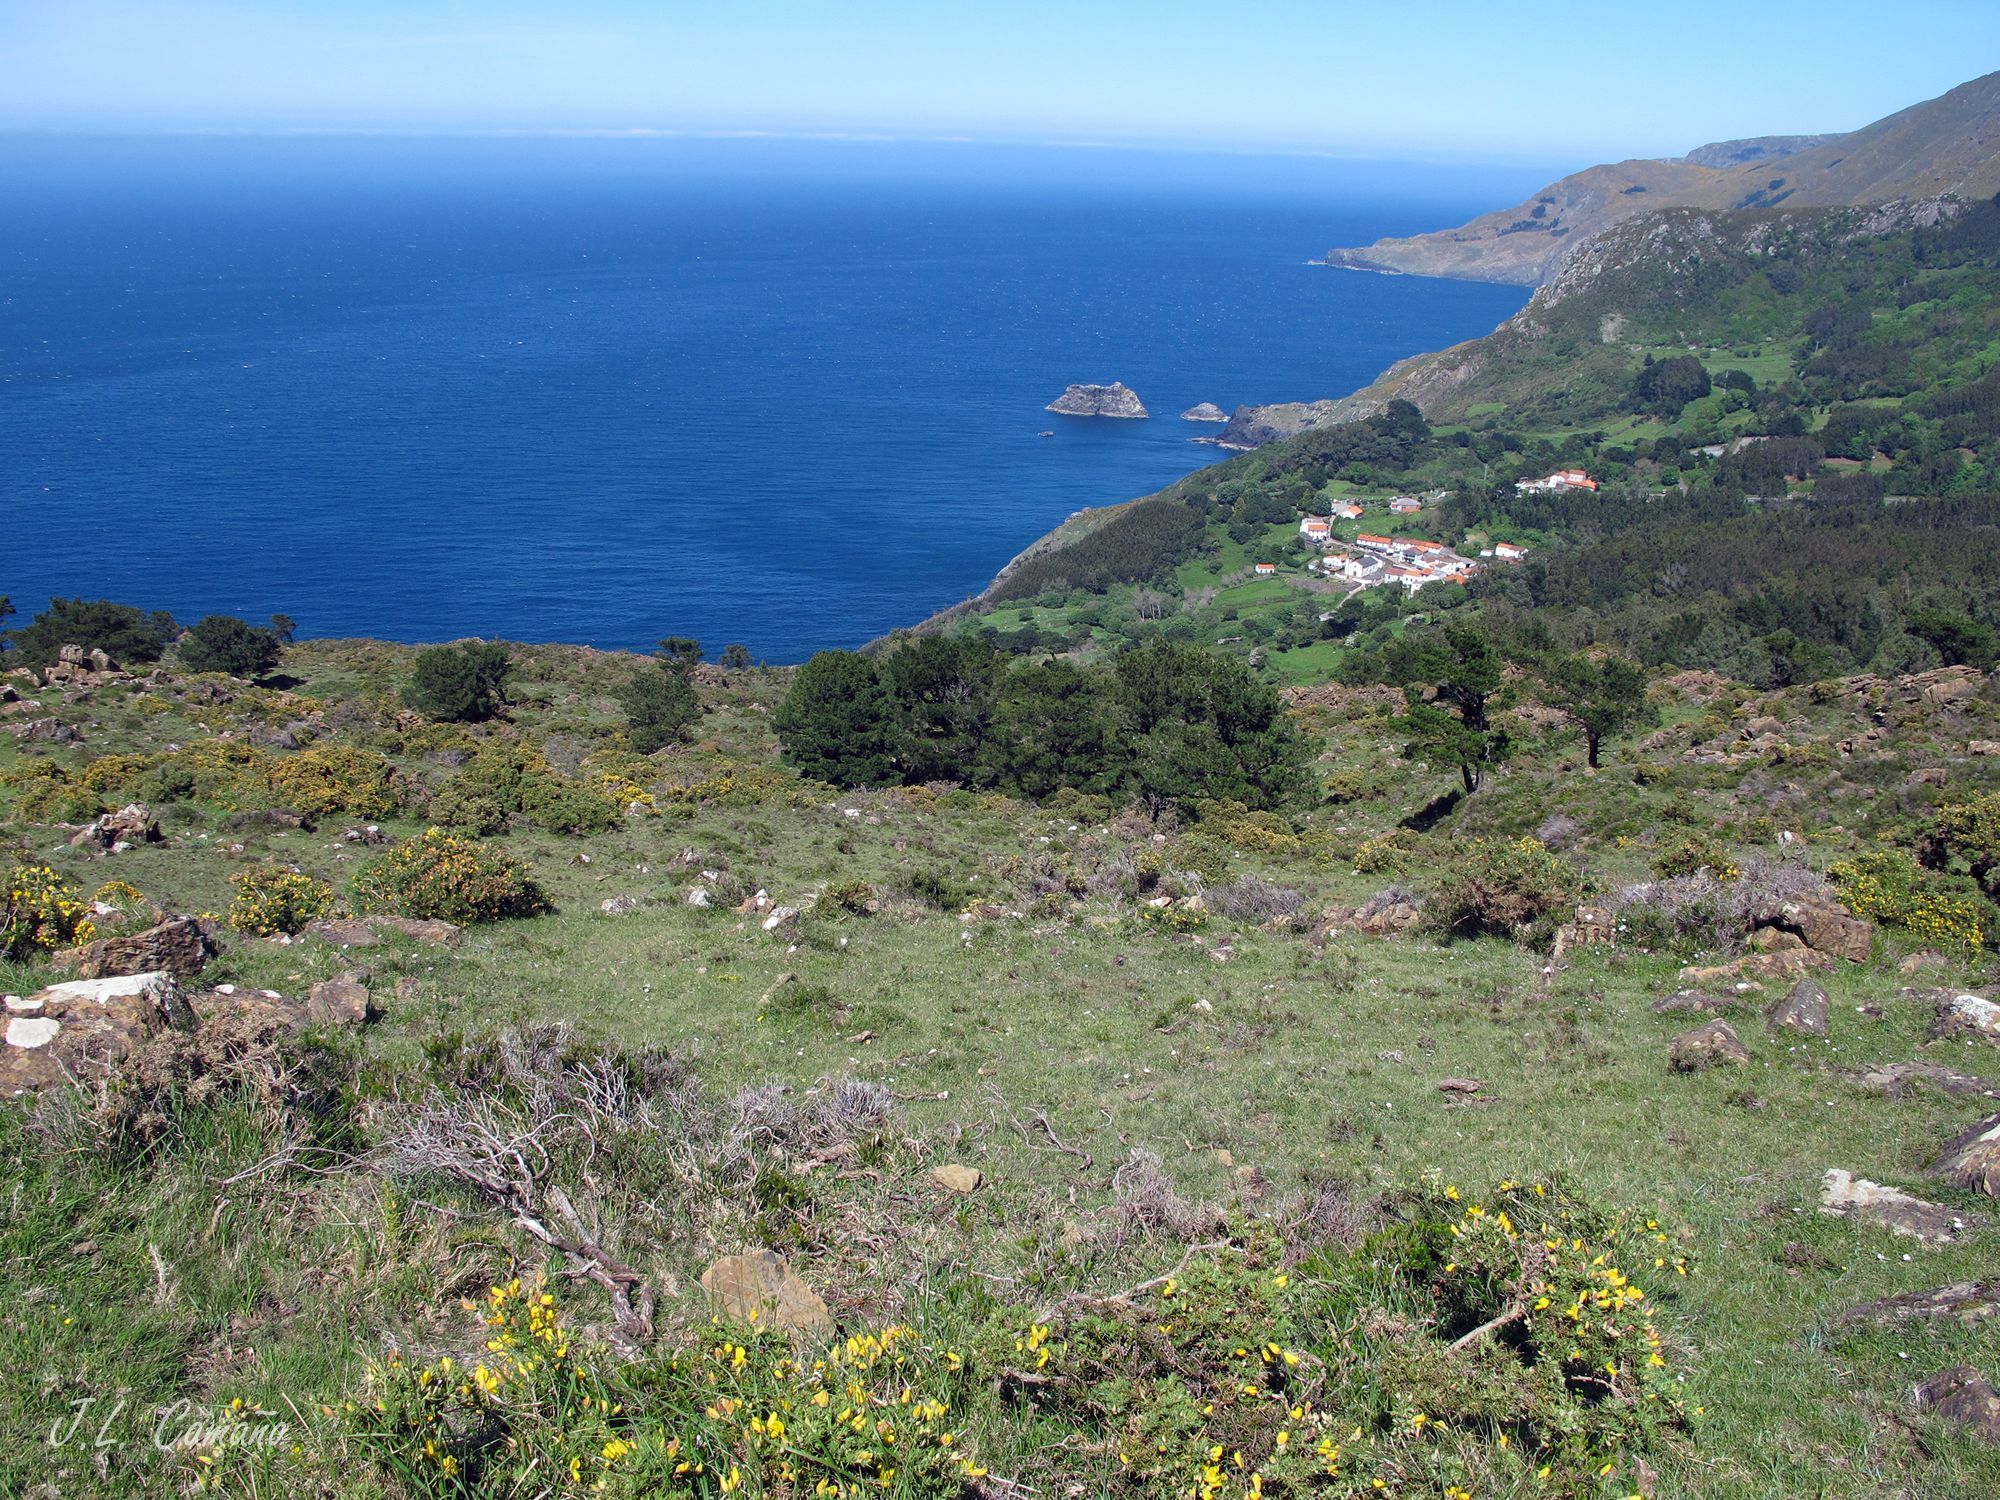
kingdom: Plantae
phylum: Bryophyta
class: Bryopsida
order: Hypnales
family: Hypnaceae
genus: Hypnum
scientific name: Hypnum cupressiforme
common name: Cypress-leaved plait-moss
